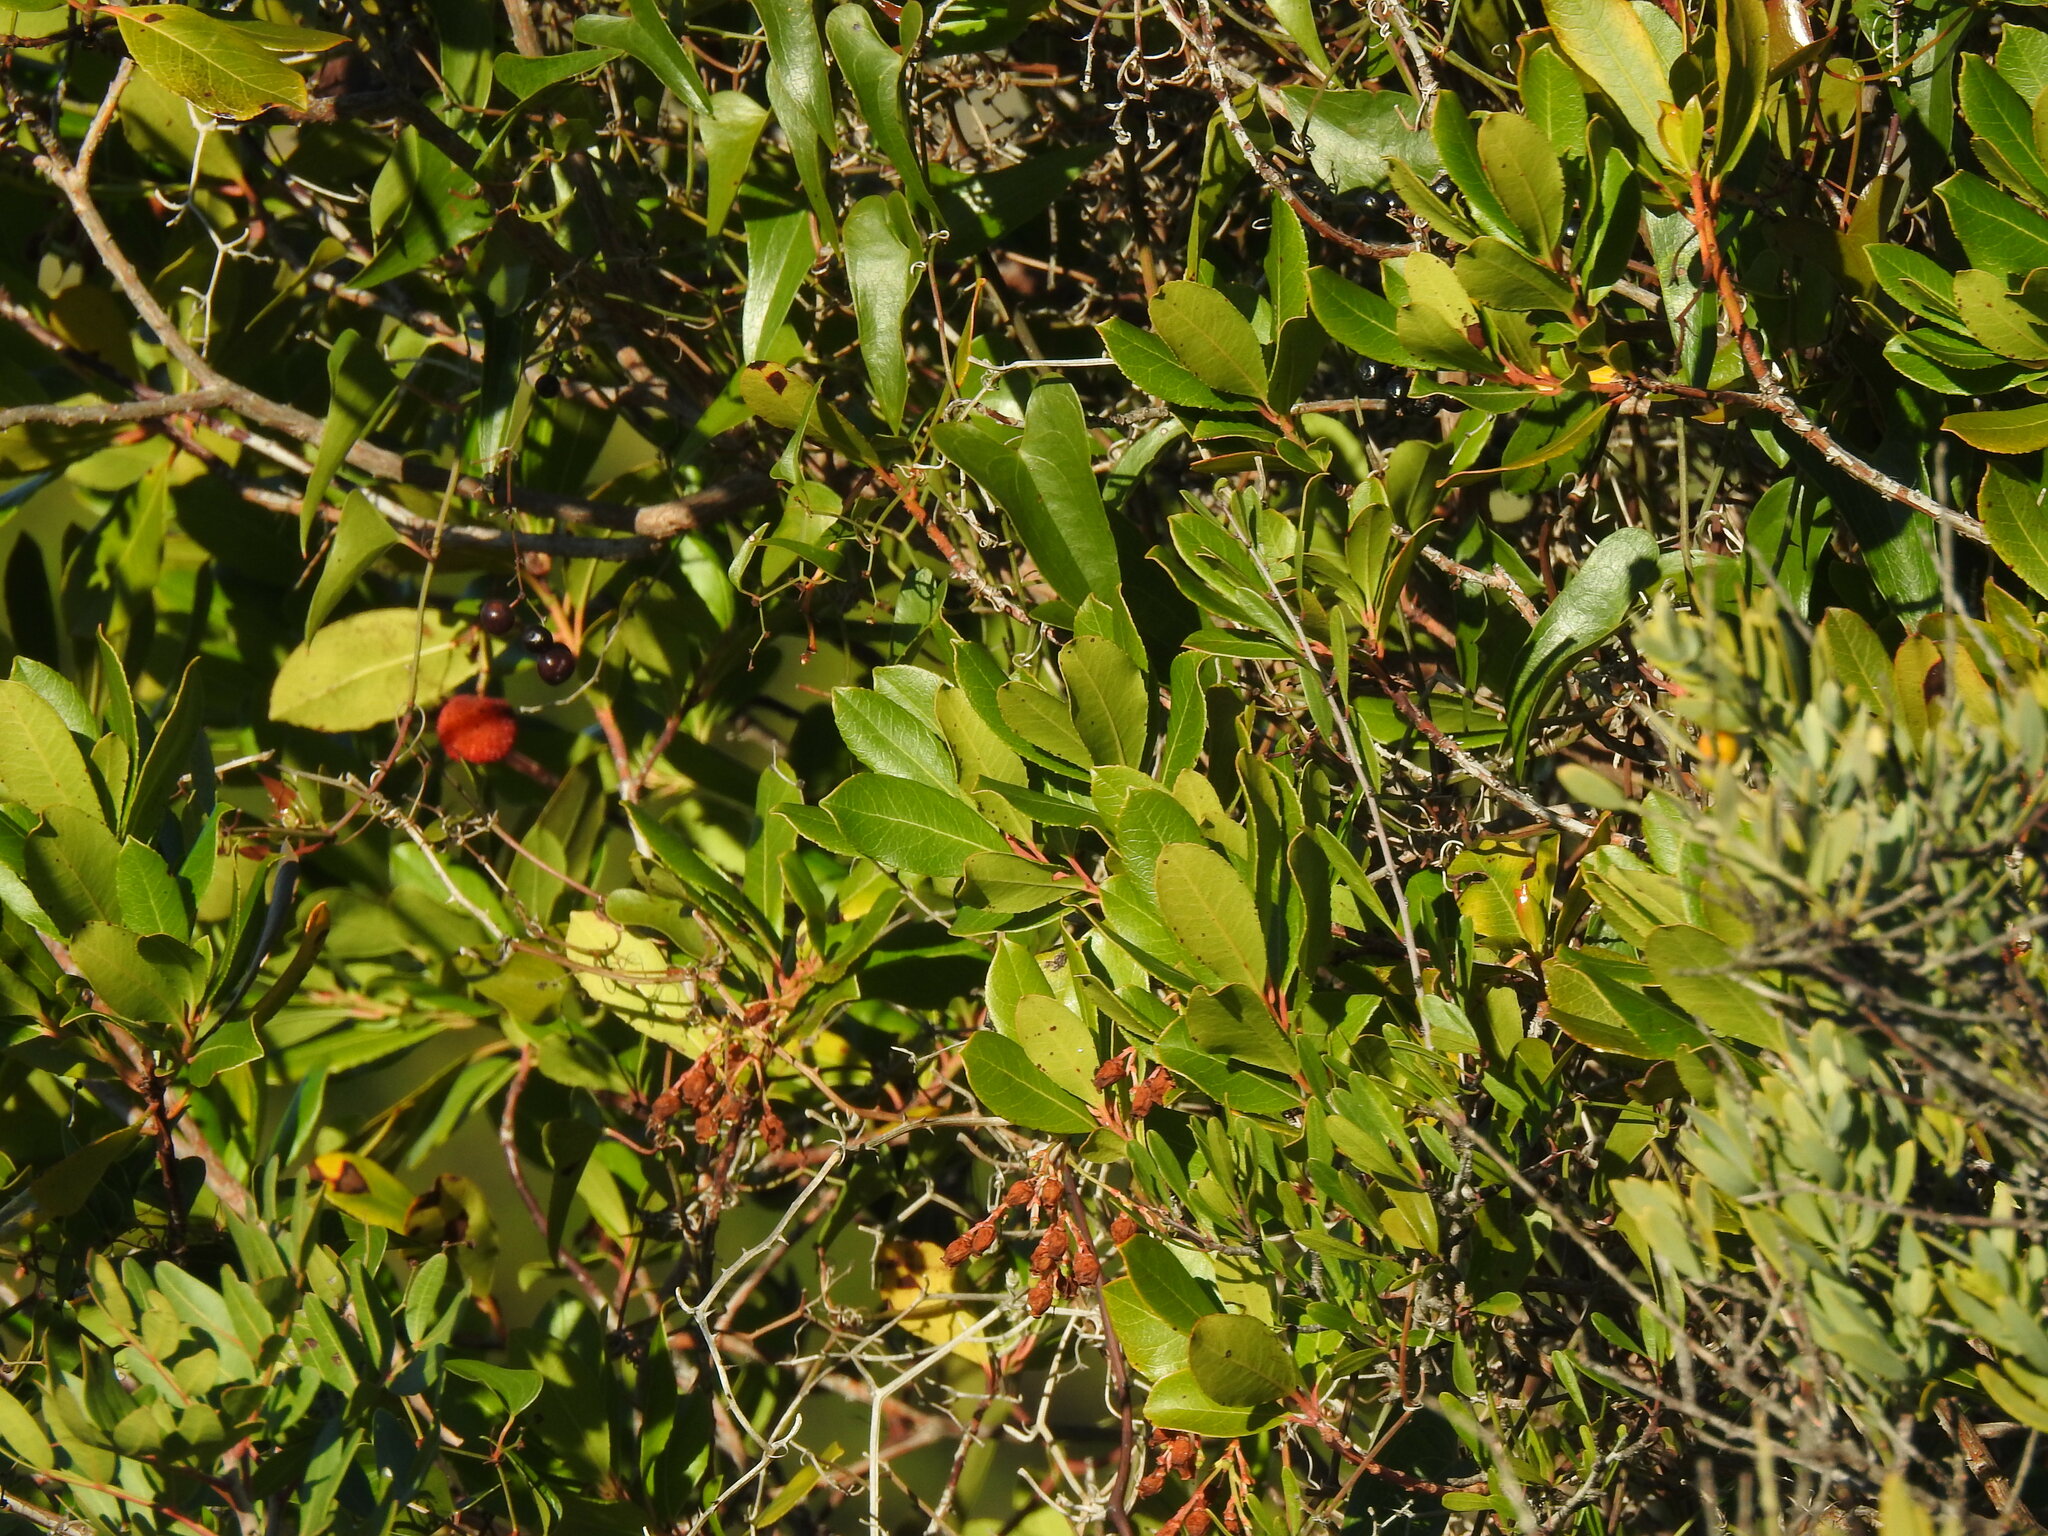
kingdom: Plantae
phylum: Tracheophyta
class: Magnoliopsida
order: Ericales
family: Ericaceae
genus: Arbutus
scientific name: Arbutus unedo
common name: Strawberry-tree
